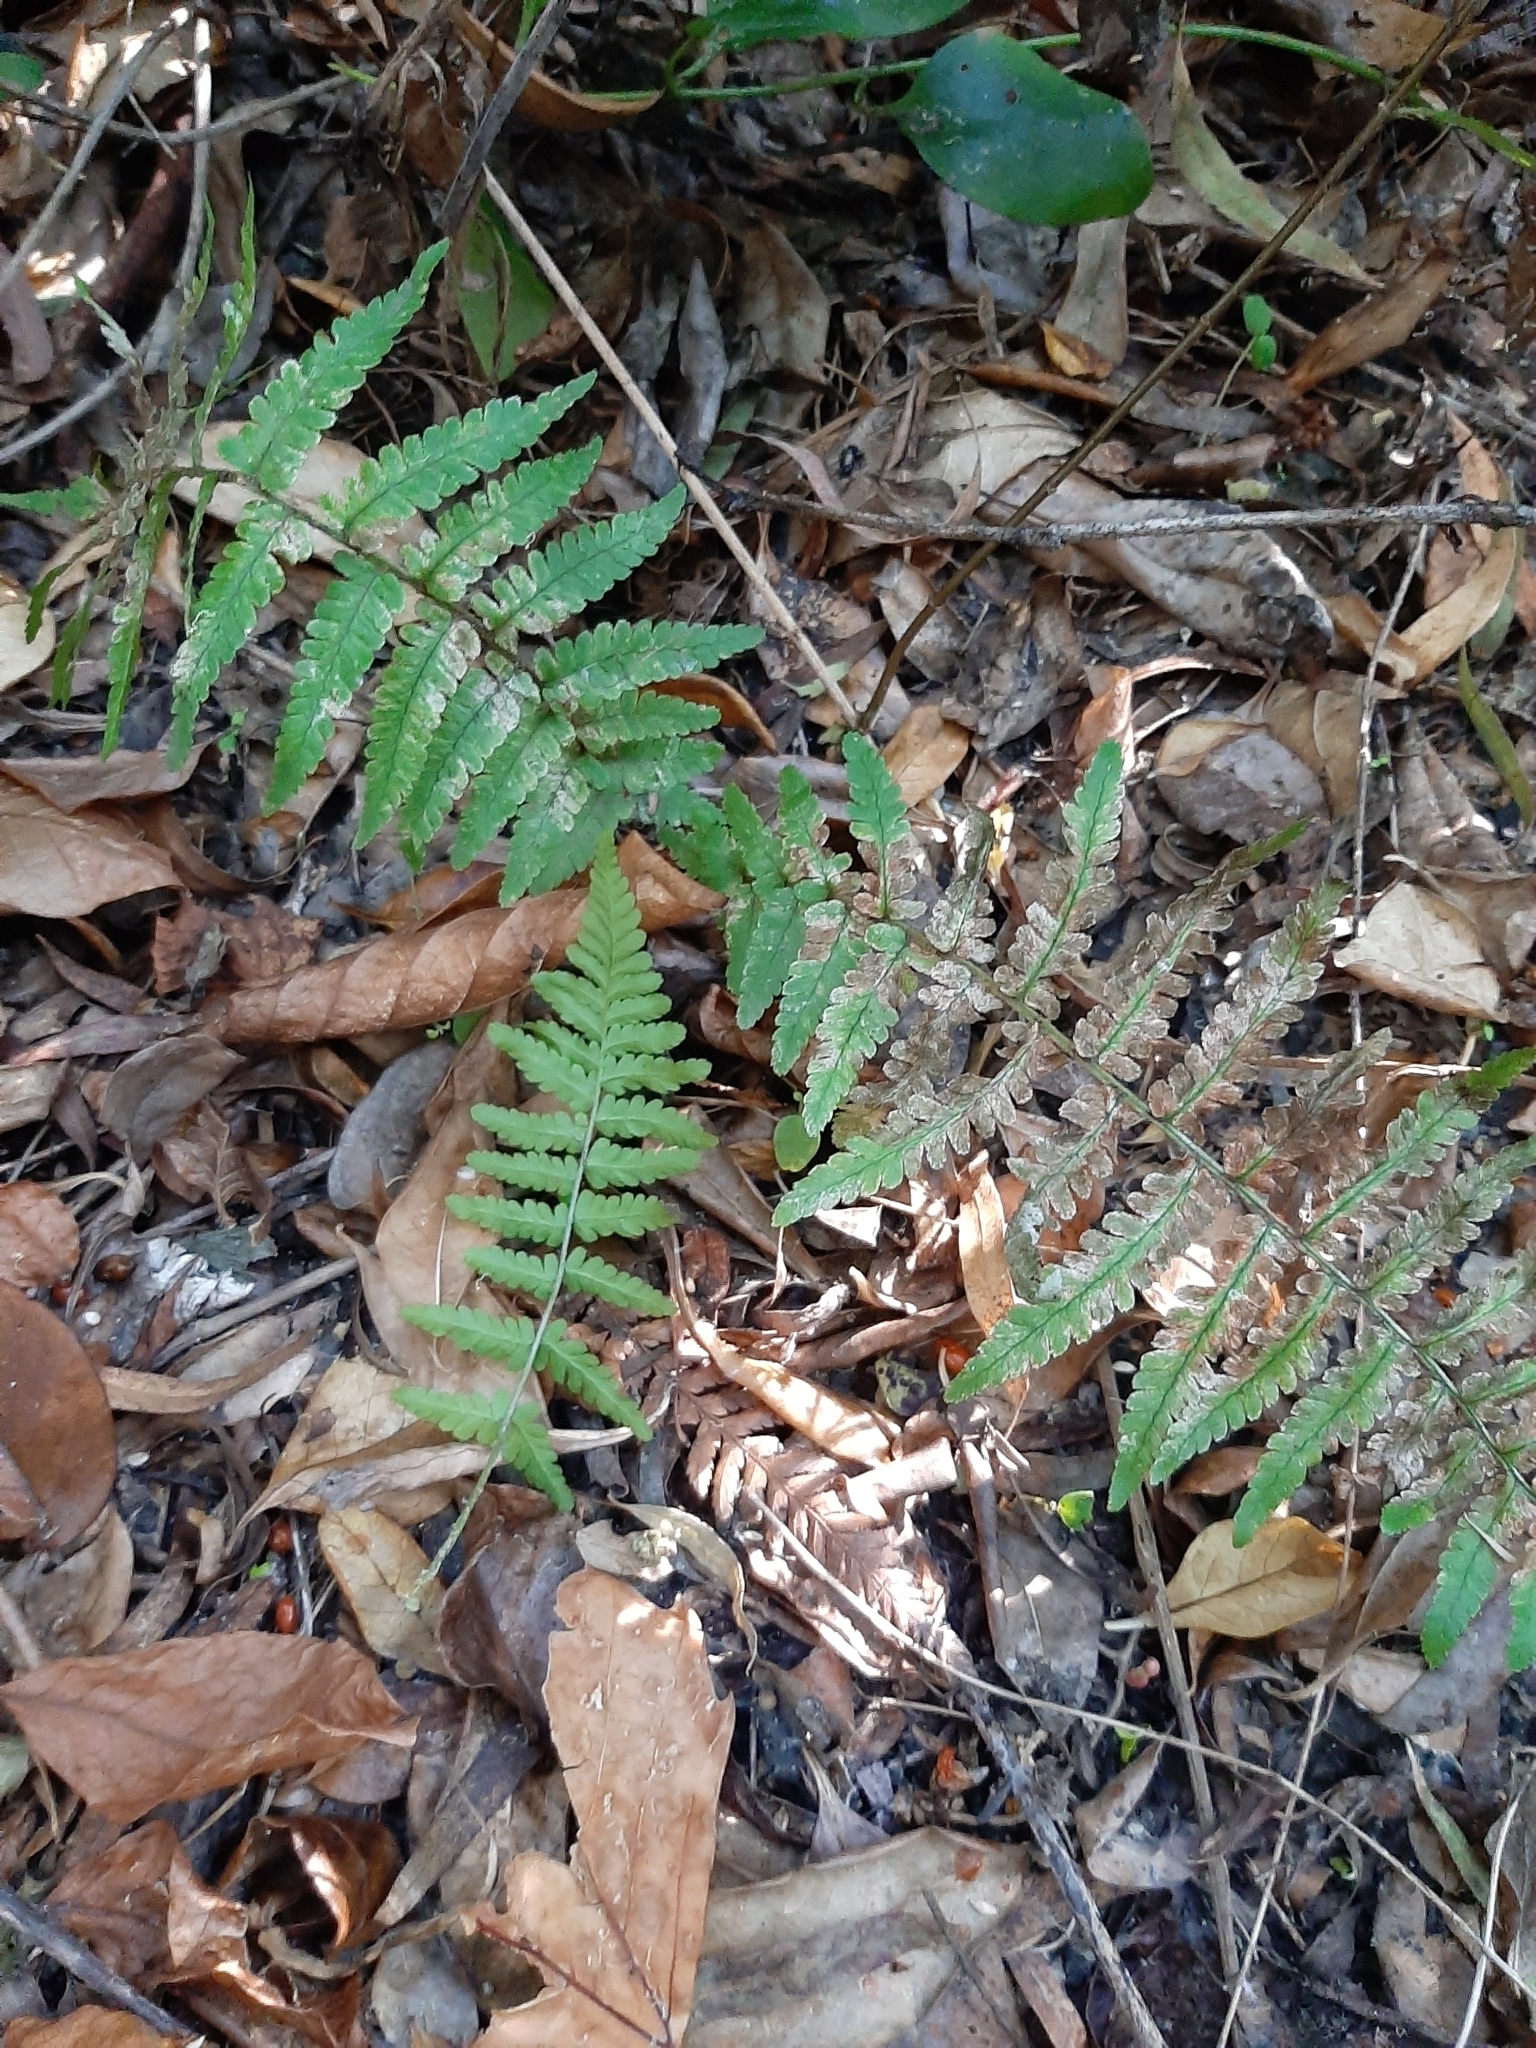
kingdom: Plantae
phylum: Tracheophyta
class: Polypodiopsida
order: Polypodiales
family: Dryopteridaceae
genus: Dryopteris
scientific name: Dryopteris filix-mas
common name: Male fern
